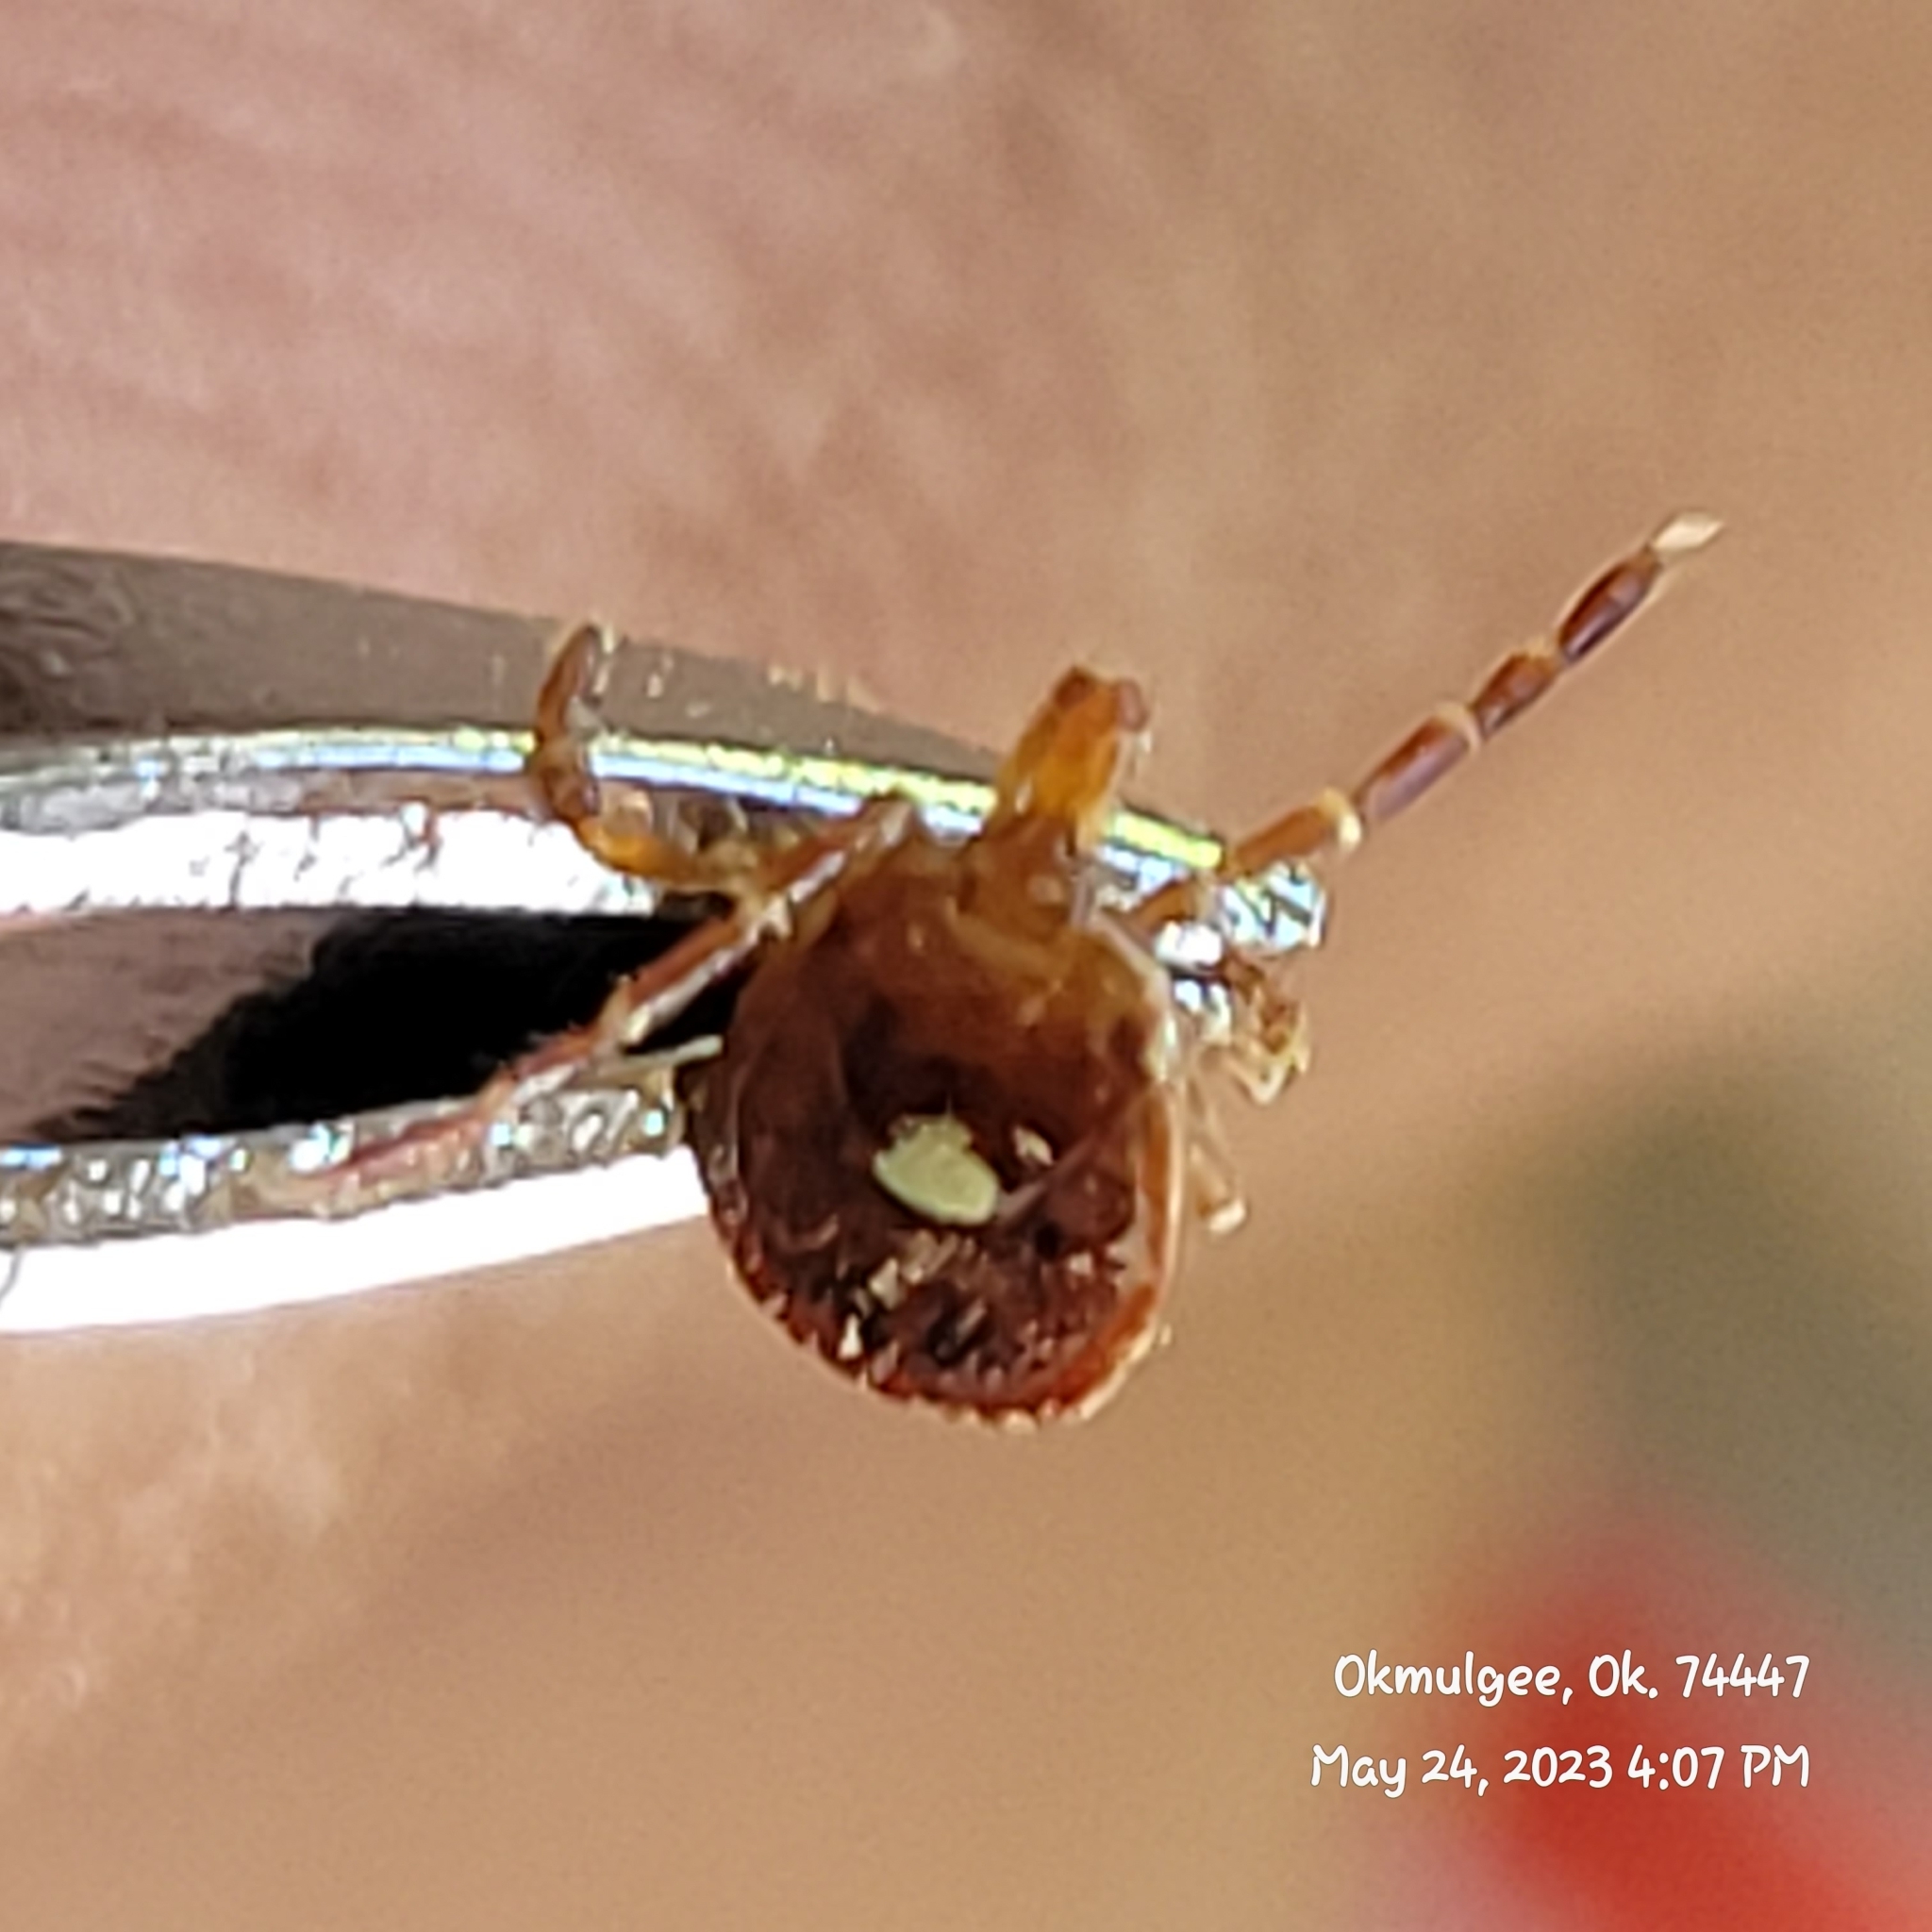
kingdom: Animalia
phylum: Arthropoda
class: Arachnida
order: Ixodida
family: Ixodidae
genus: Amblyomma
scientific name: Amblyomma americanum
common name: Lone star tick
